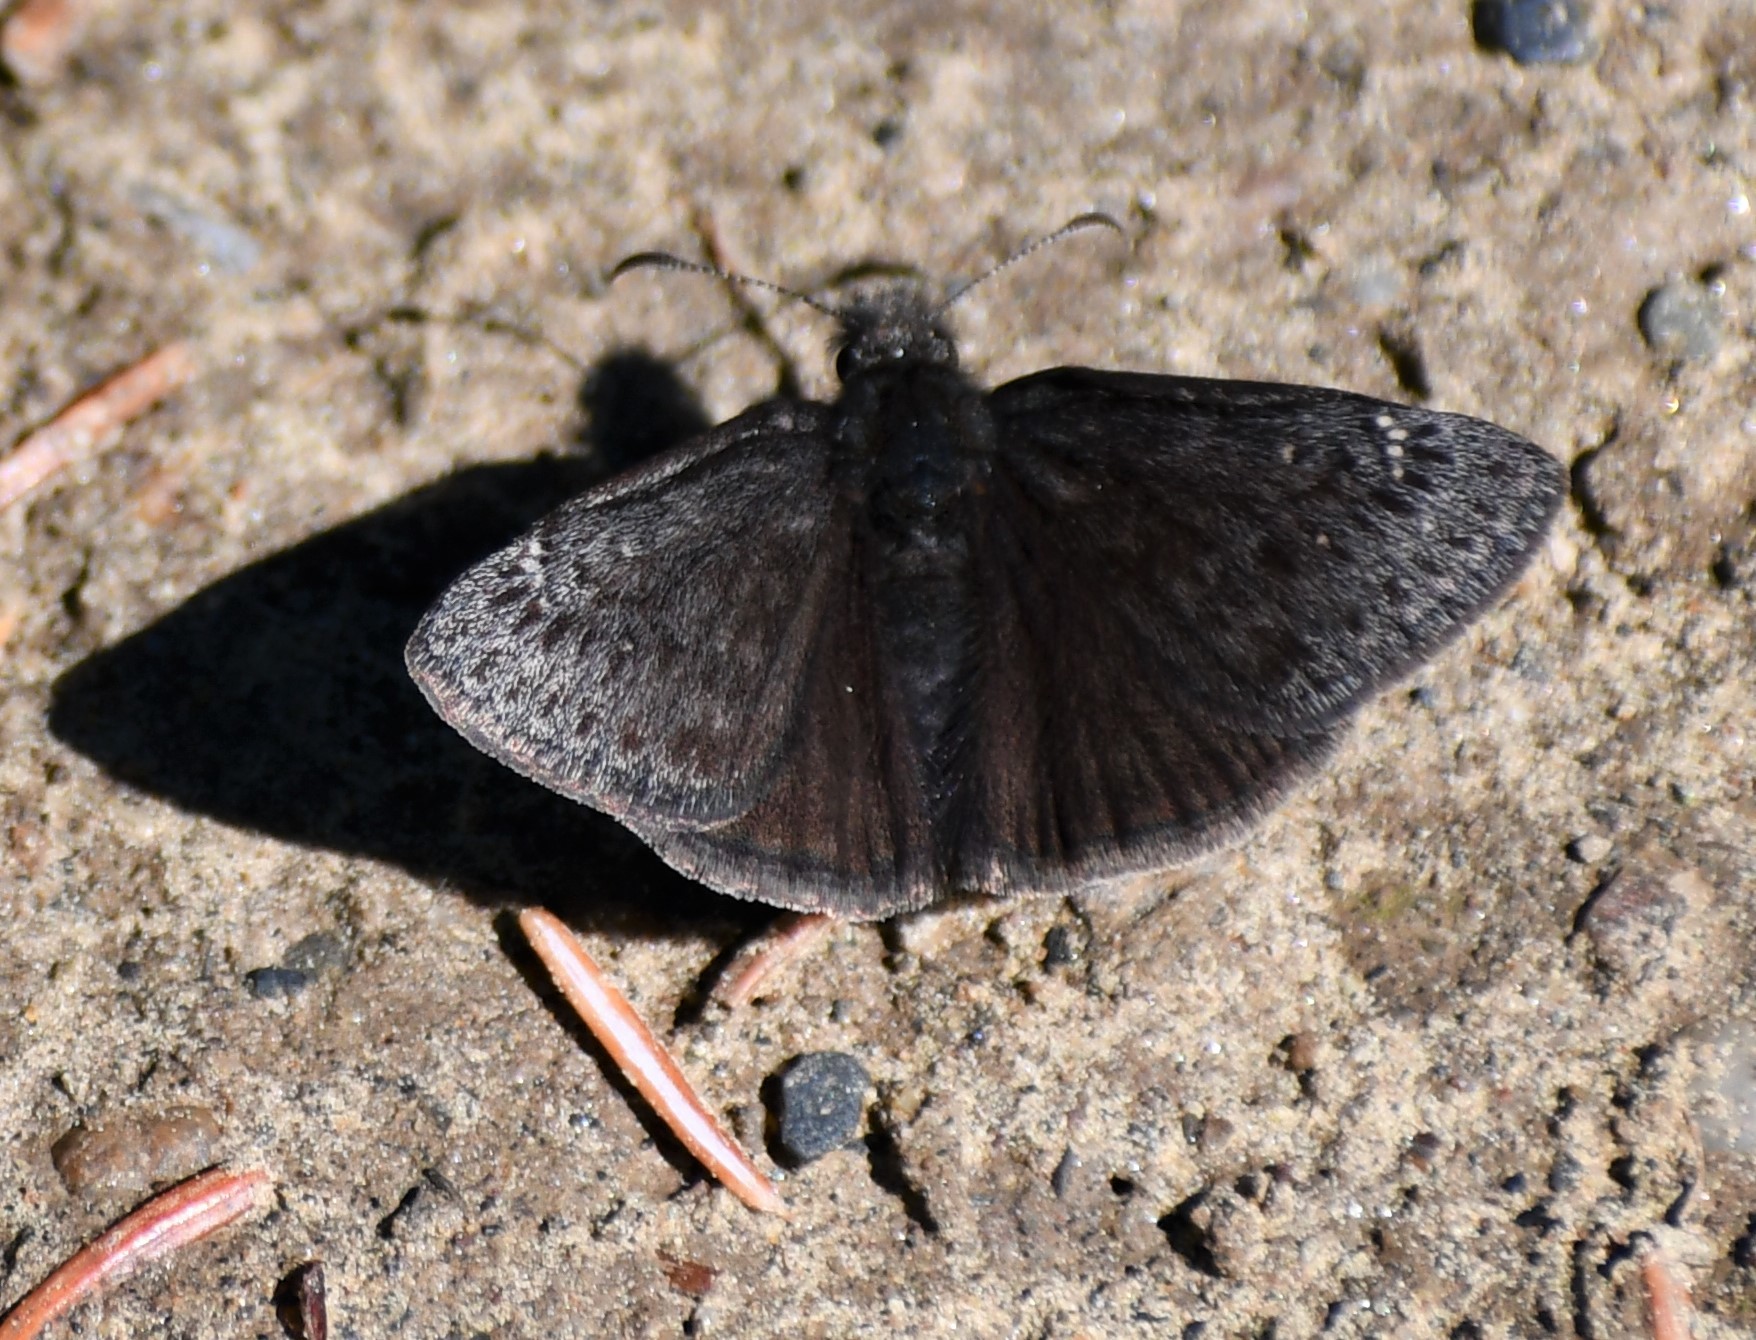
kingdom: Animalia
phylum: Arthropoda
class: Insecta
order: Lepidoptera
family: Hesperiidae
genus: Erynnis
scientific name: Erynnis persius
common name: Persius duskywing
